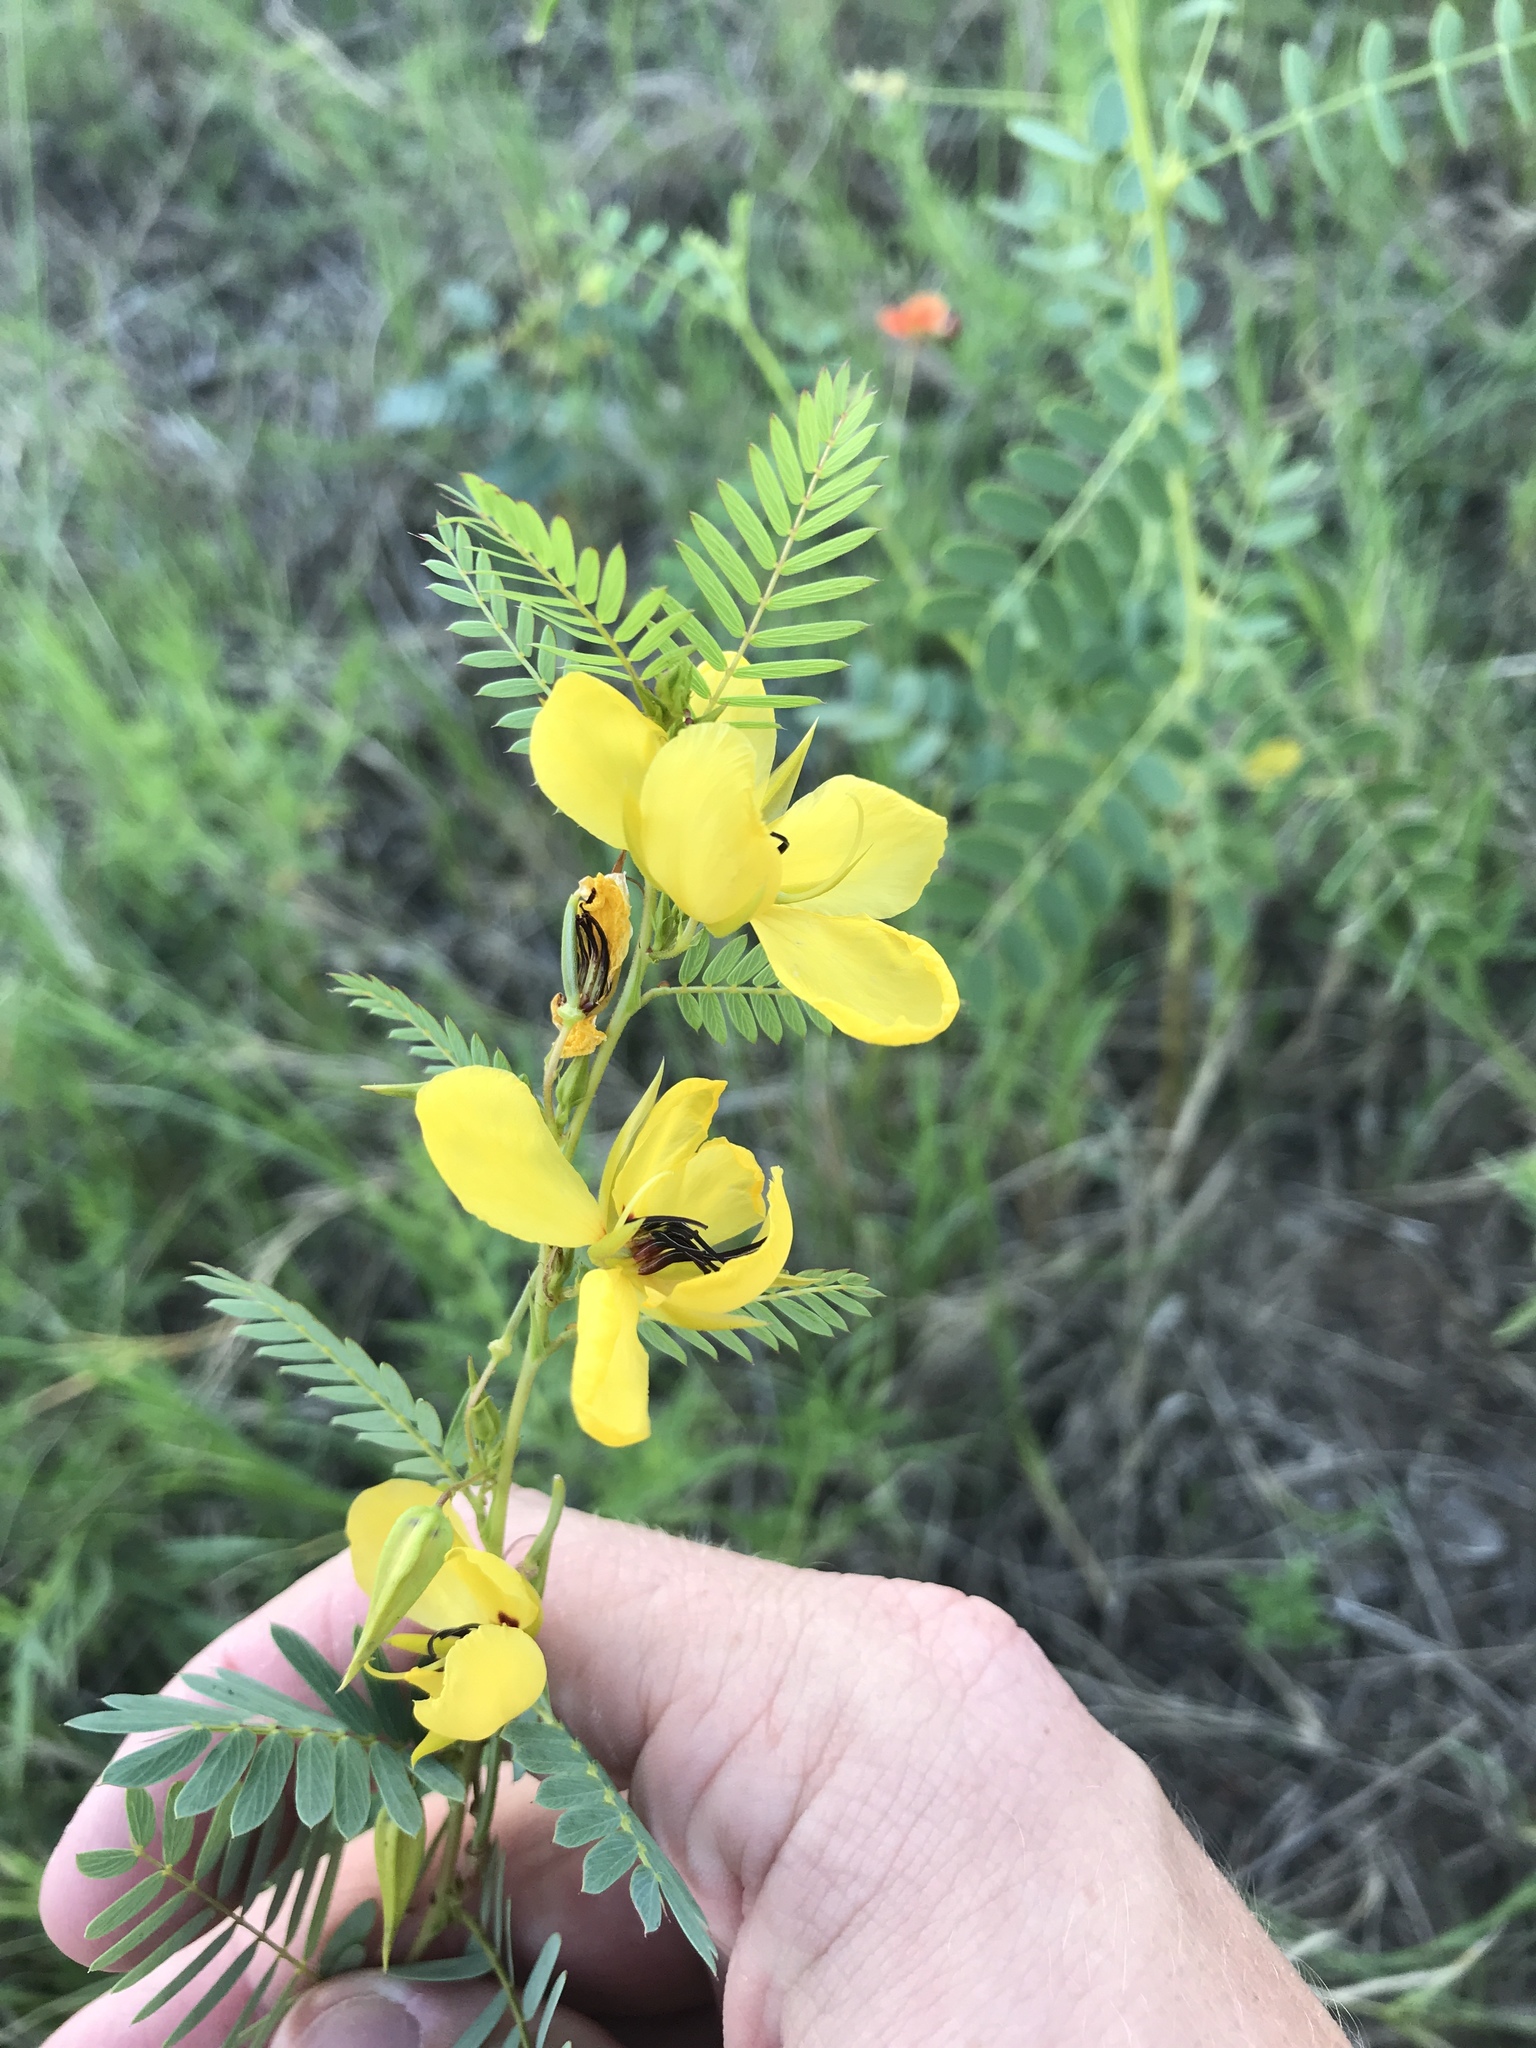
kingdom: Plantae
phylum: Tracheophyta
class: Magnoliopsida
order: Fabales
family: Fabaceae
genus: Chamaecrista
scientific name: Chamaecrista fasciculata
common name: Golden cassia
